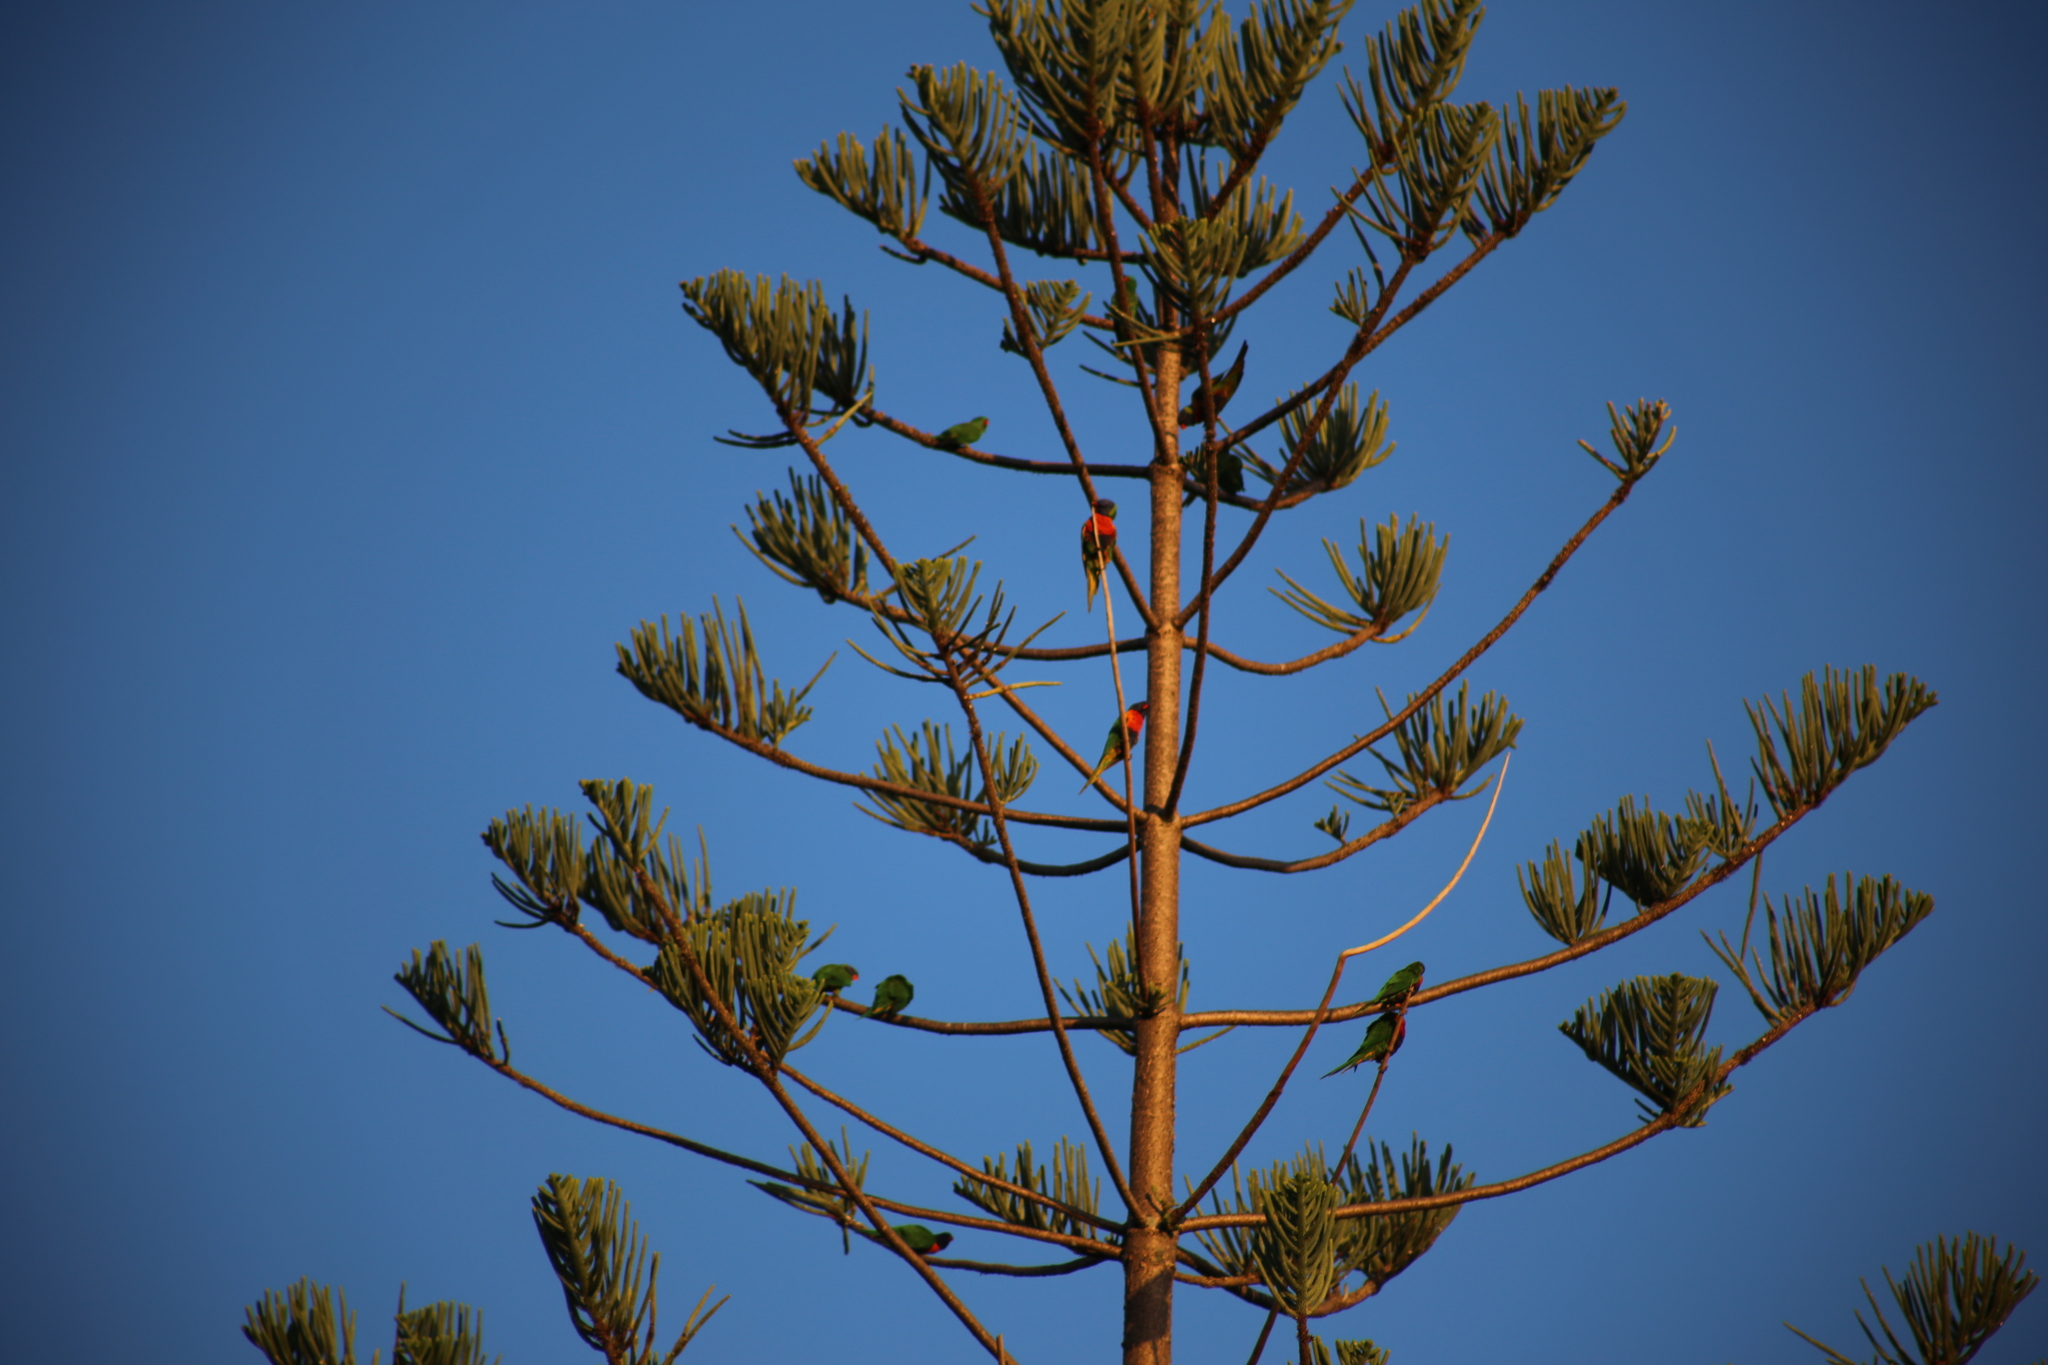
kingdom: Animalia
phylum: Chordata
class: Aves
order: Psittaciformes
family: Psittacidae
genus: Trichoglossus
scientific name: Trichoglossus haematodus
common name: Coconut lorikeet
